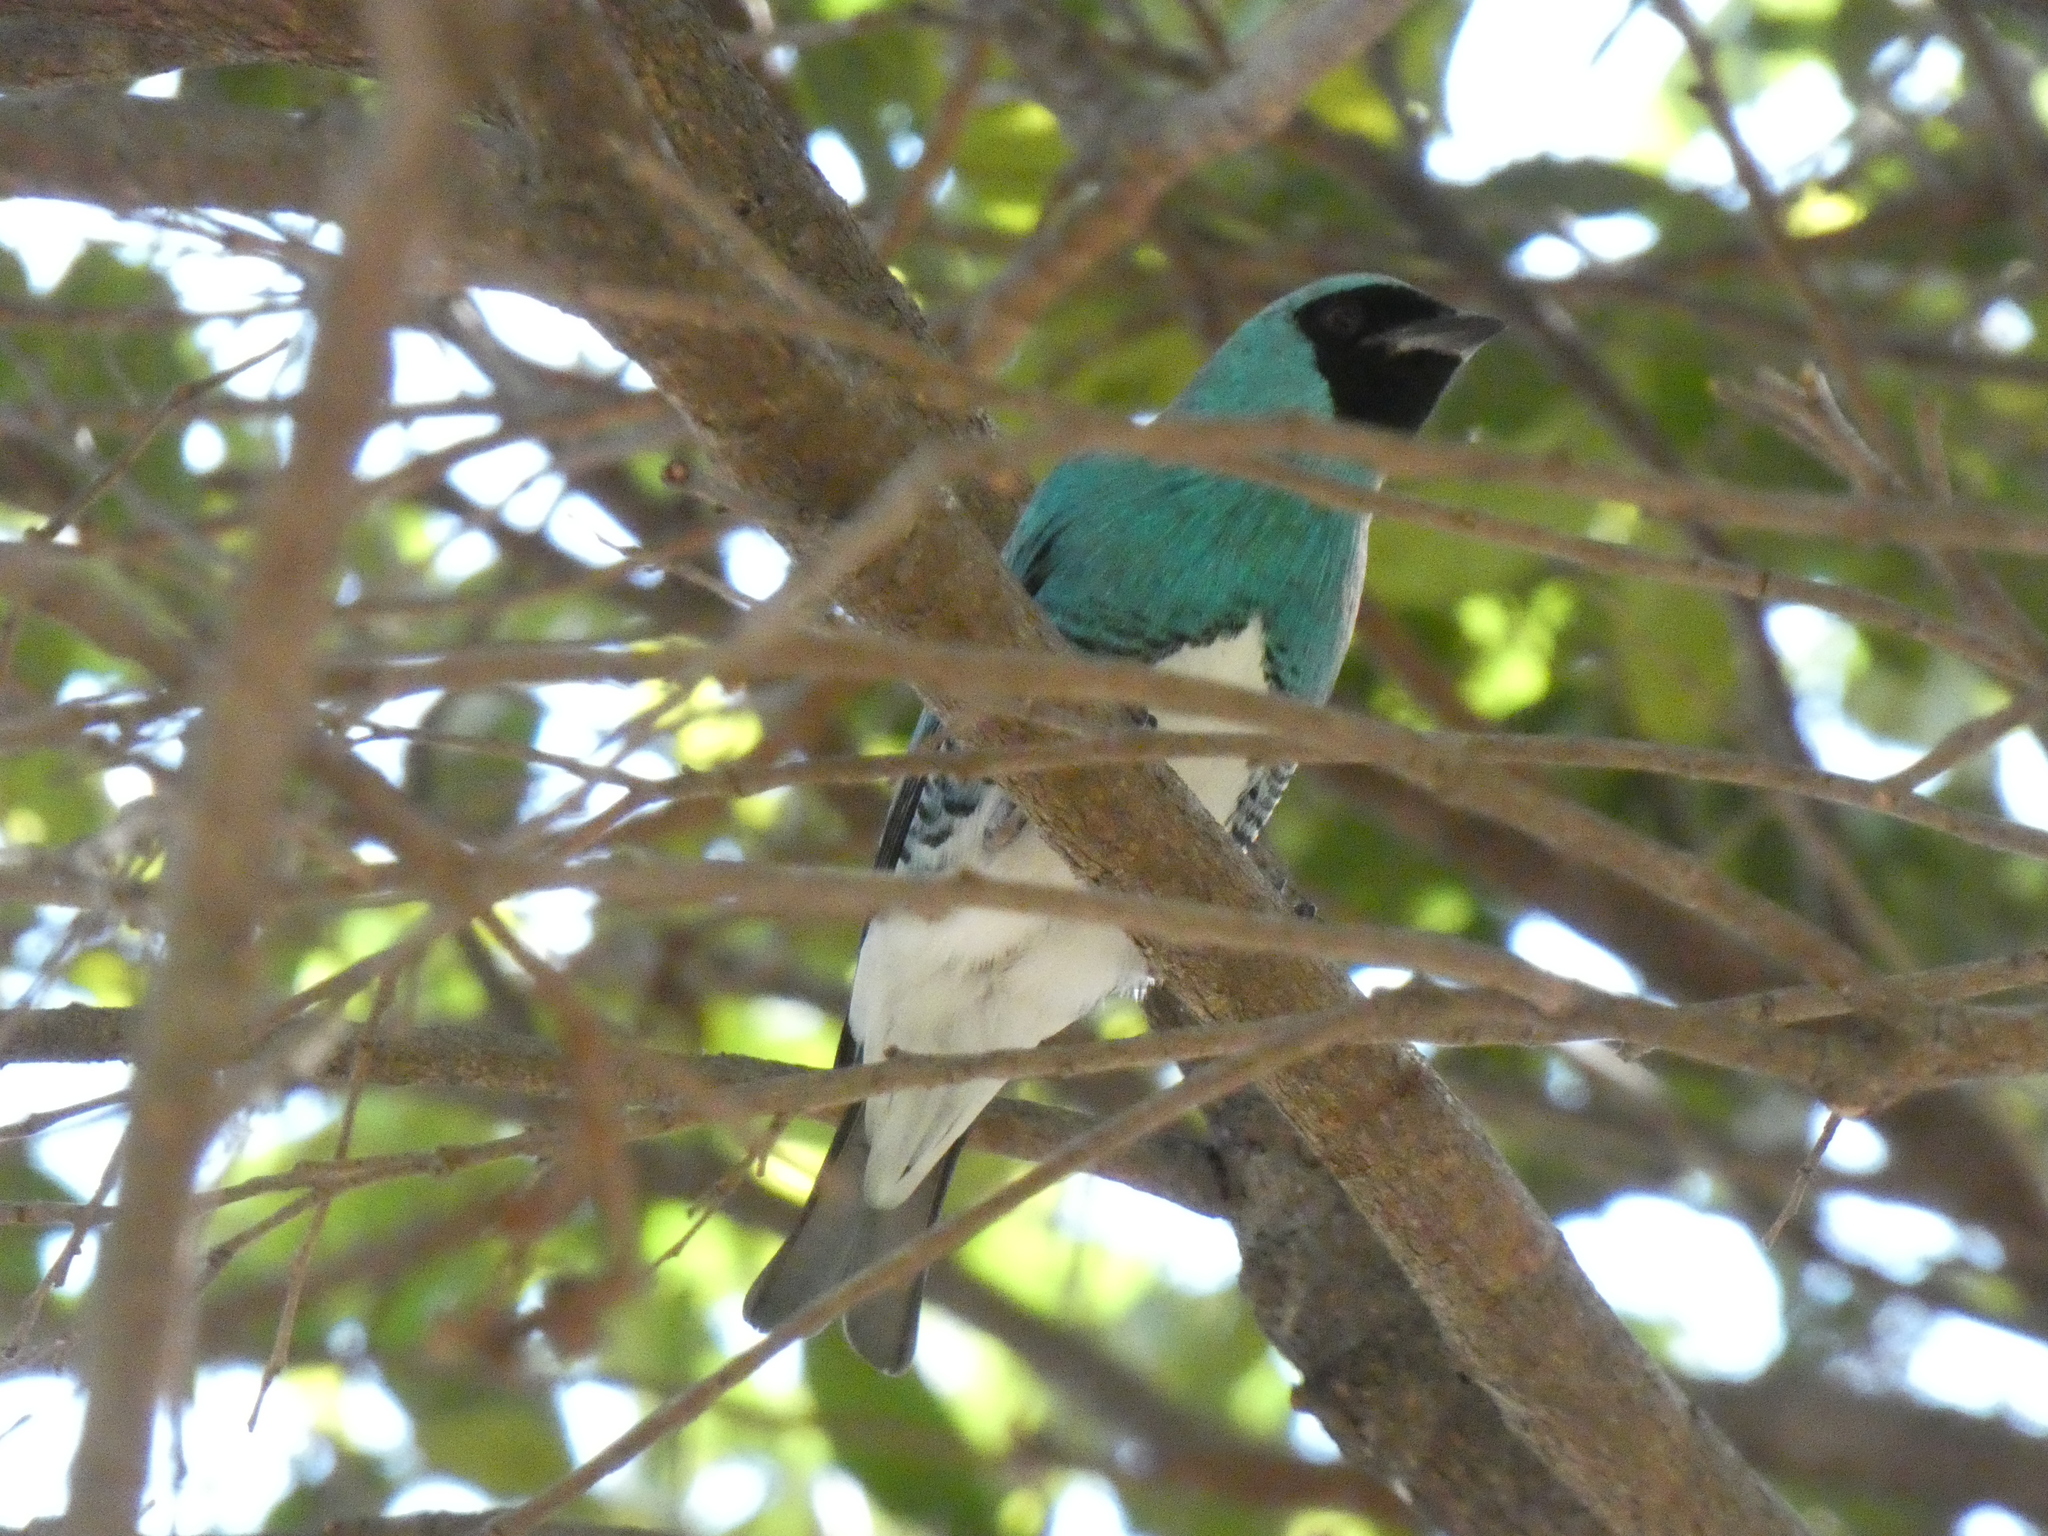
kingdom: Animalia
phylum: Chordata
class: Aves
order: Passeriformes
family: Thraupidae
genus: Tersina
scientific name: Tersina viridis
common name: Swallow tanager
